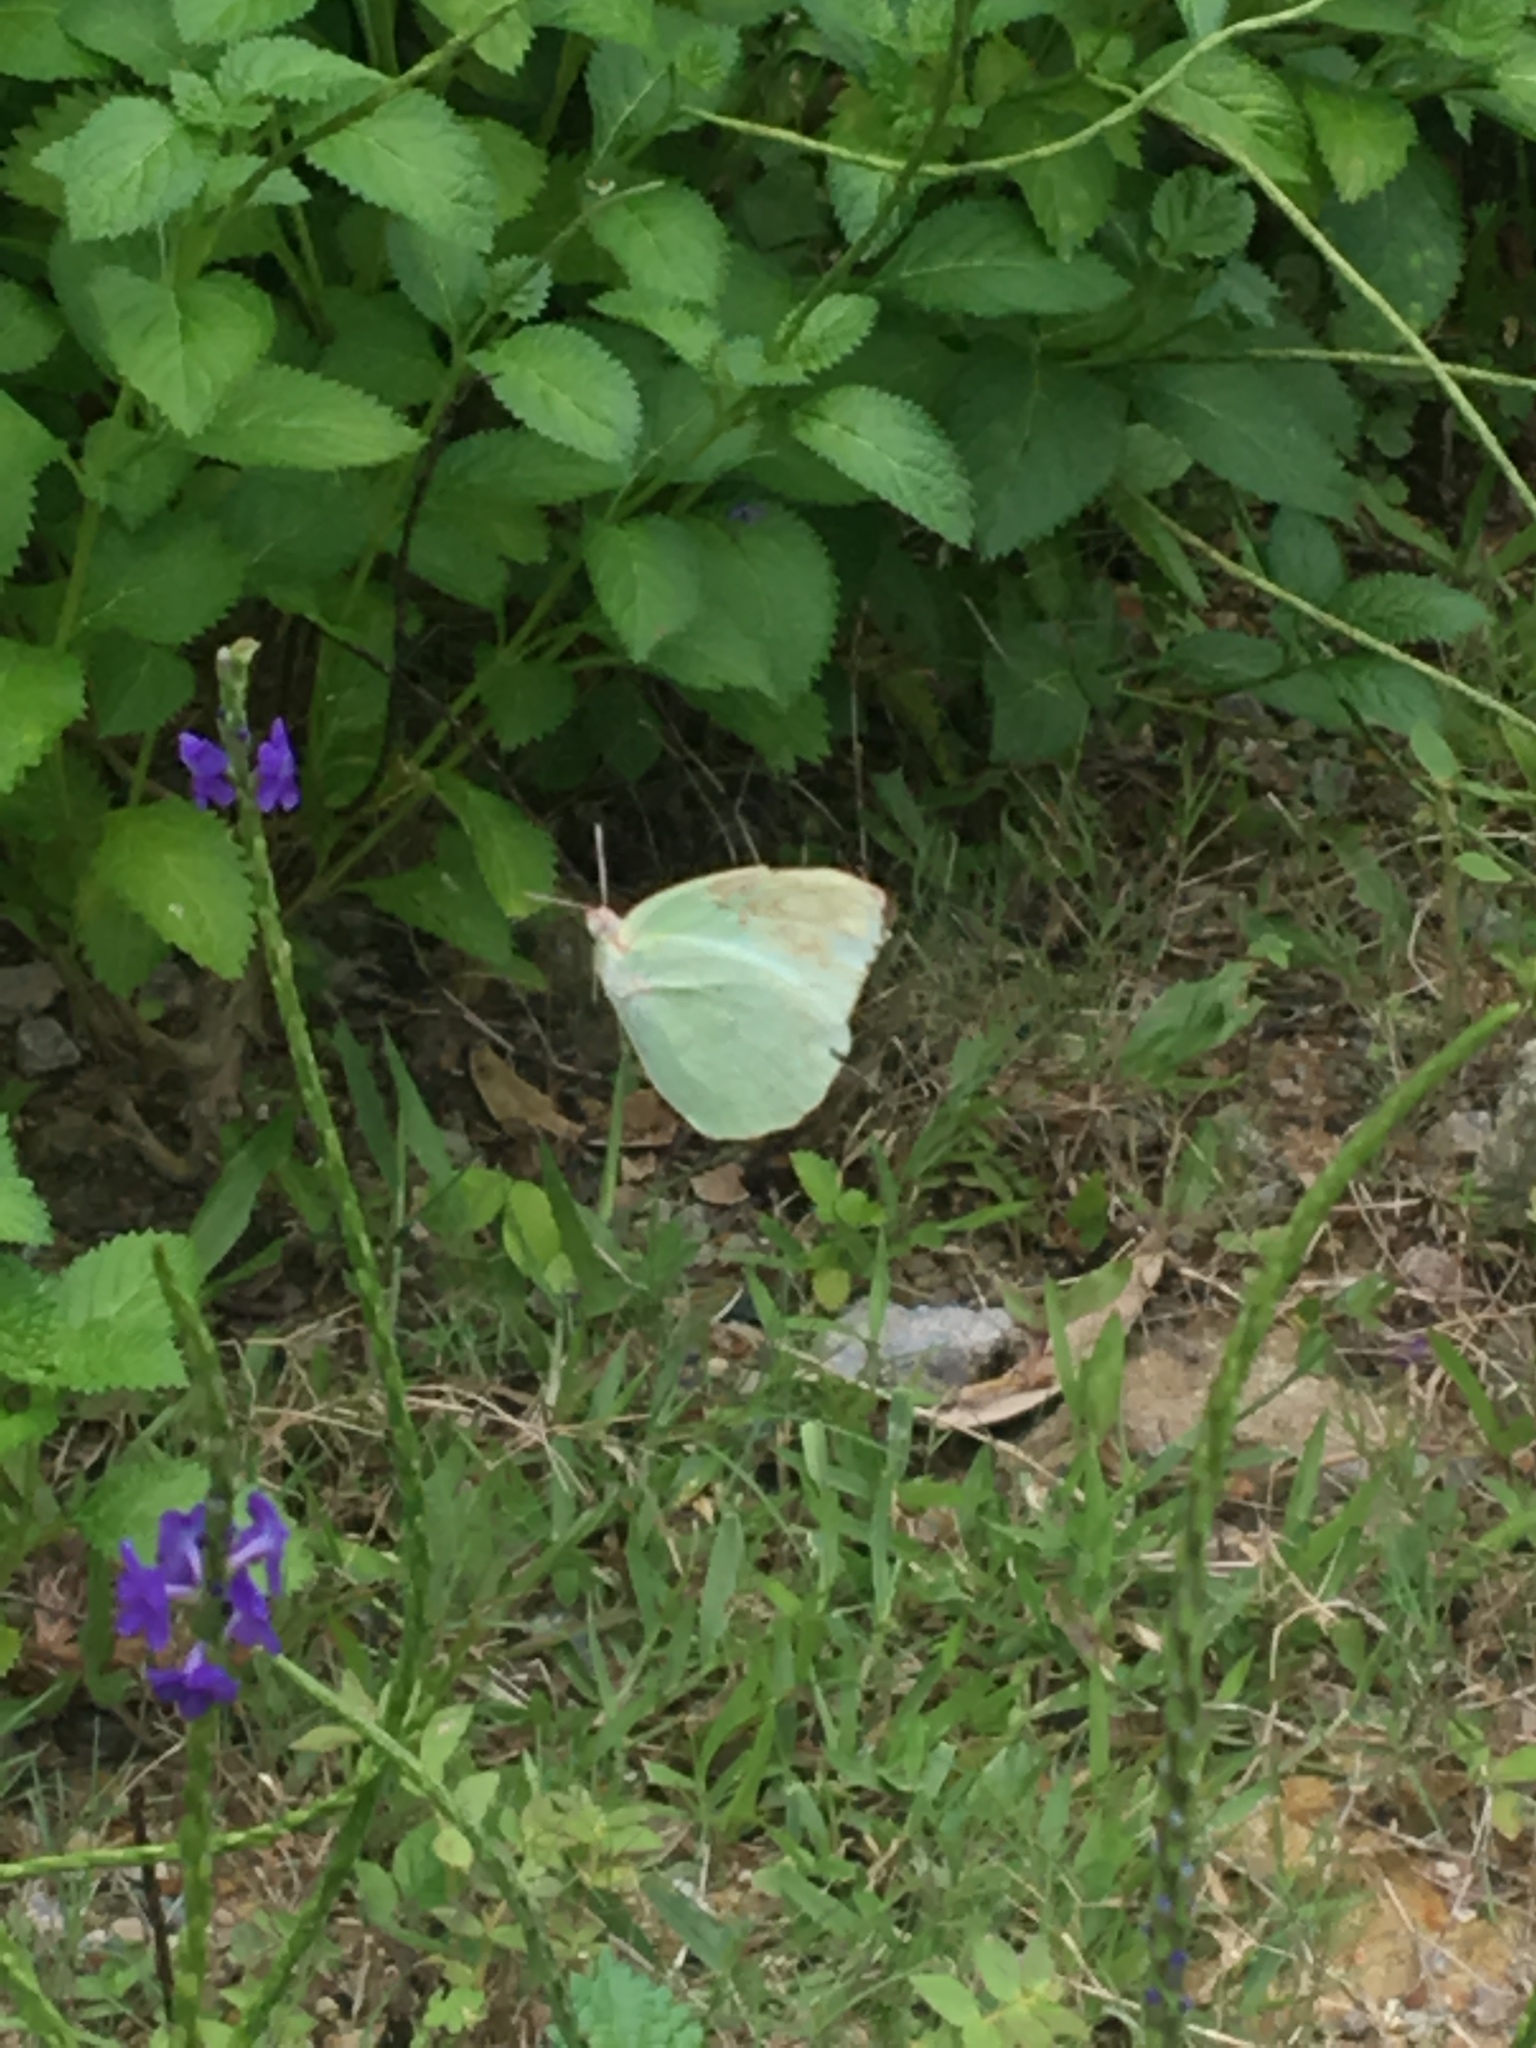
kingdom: Animalia
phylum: Arthropoda
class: Insecta
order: Lepidoptera
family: Pieridae
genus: Catopsilia
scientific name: Catopsilia pomona
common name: Common emigrant
